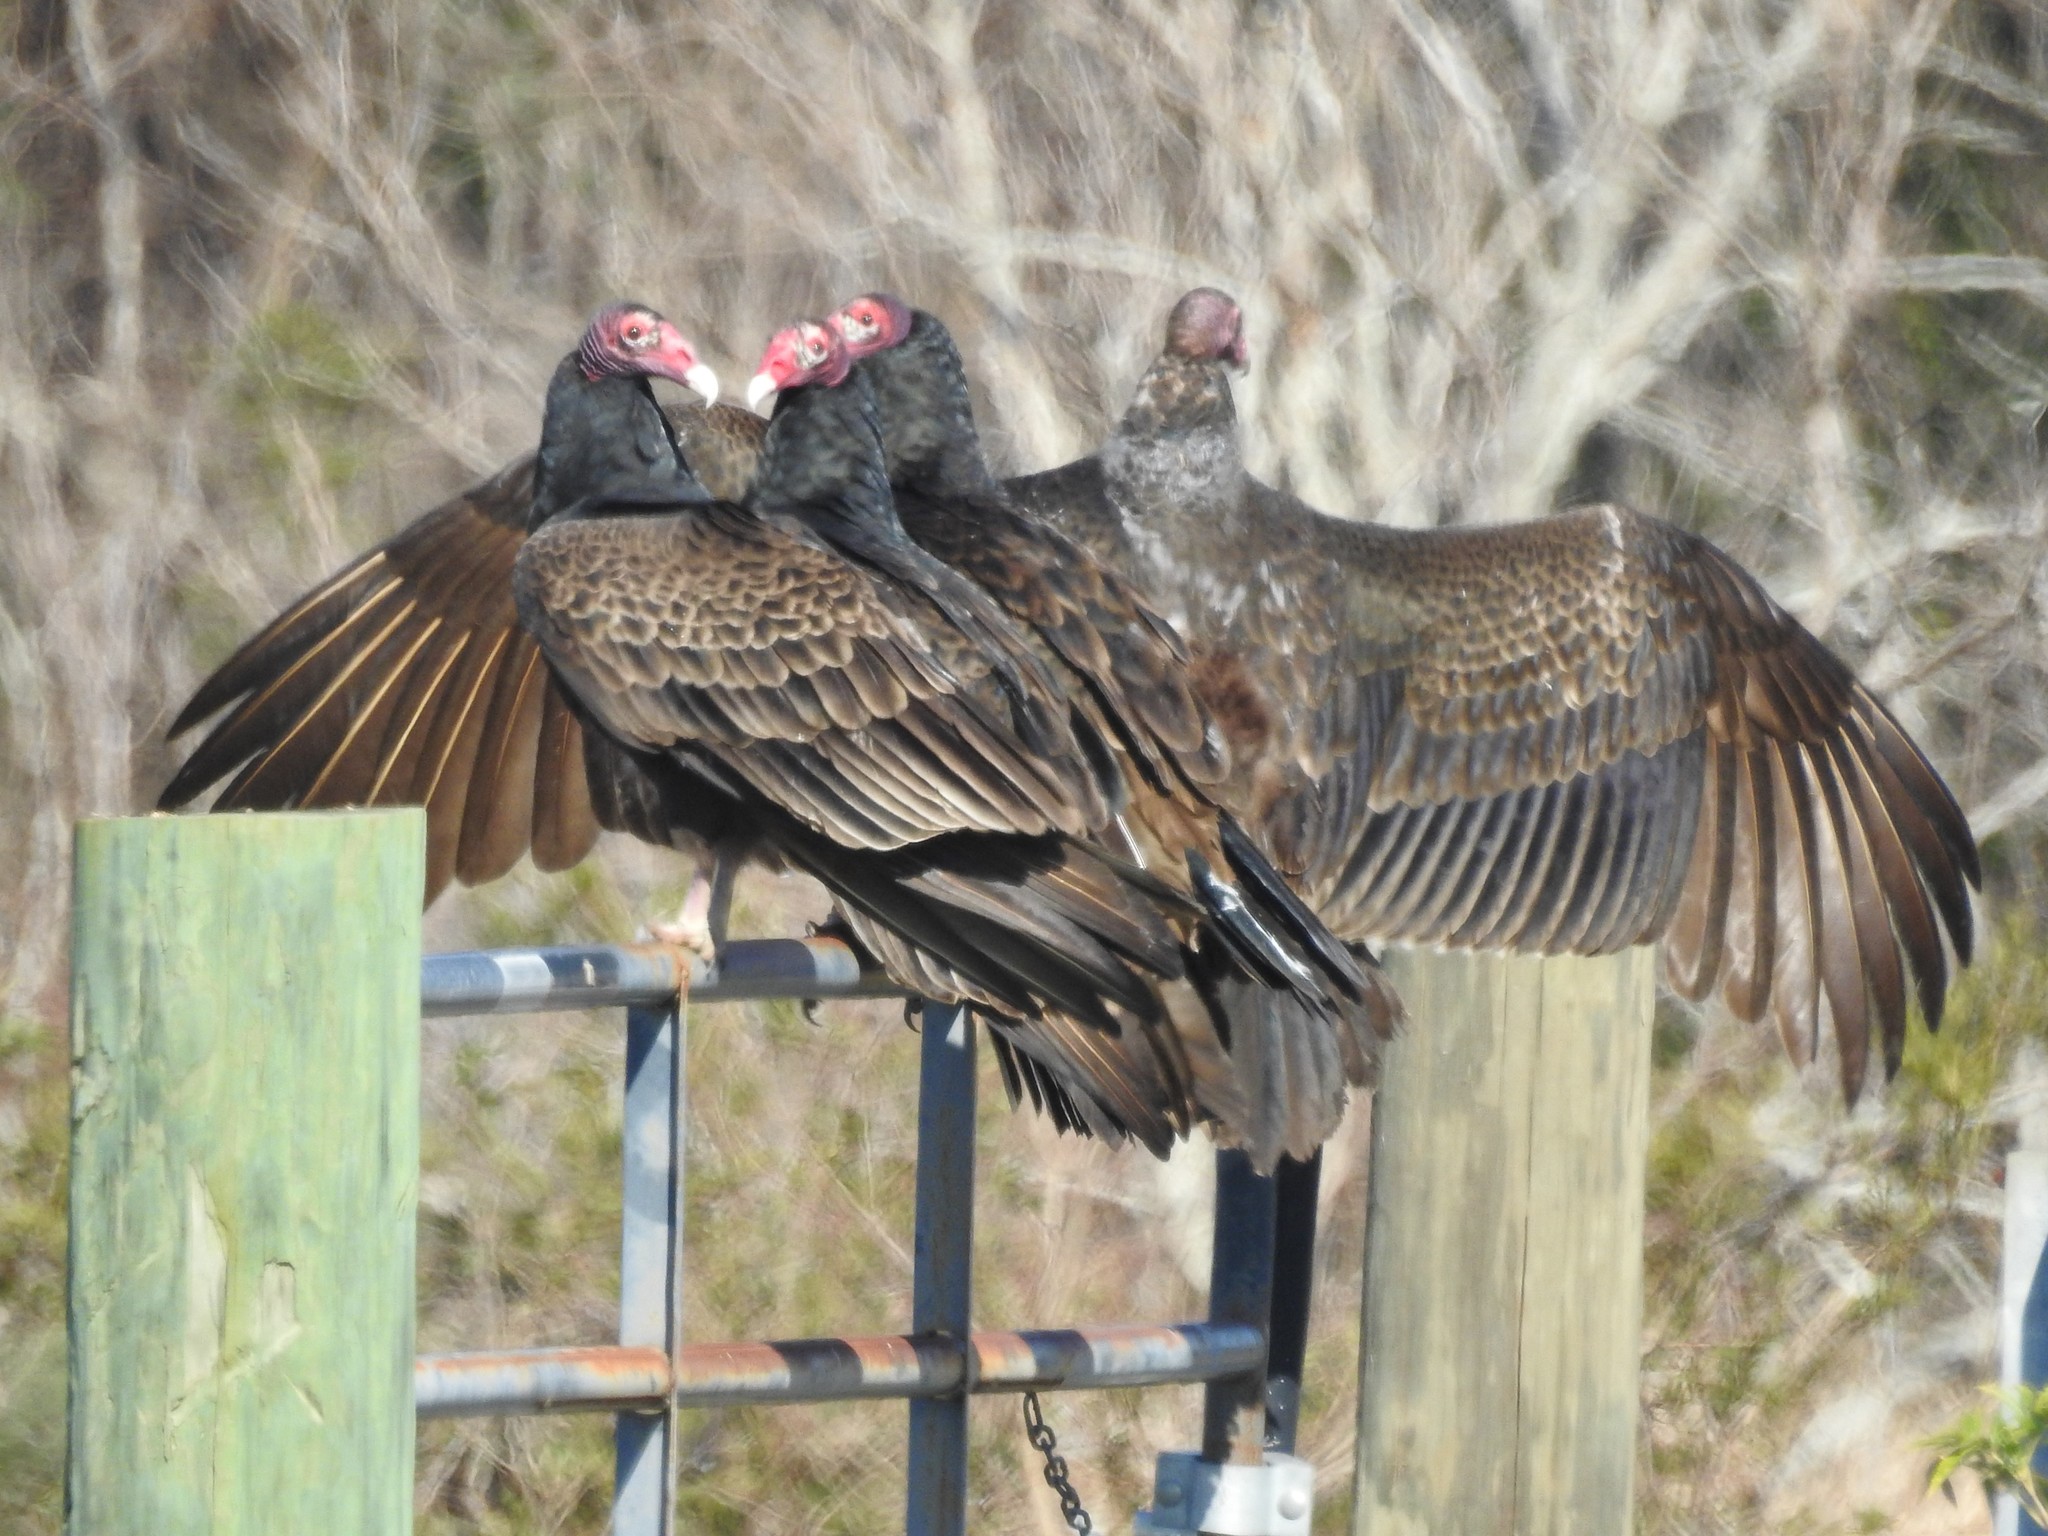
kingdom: Animalia
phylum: Chordata
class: Aves
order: Accipitriformes
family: Cathartidae
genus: Cathartes
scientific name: Cathartes aura
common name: Turkey vulture
